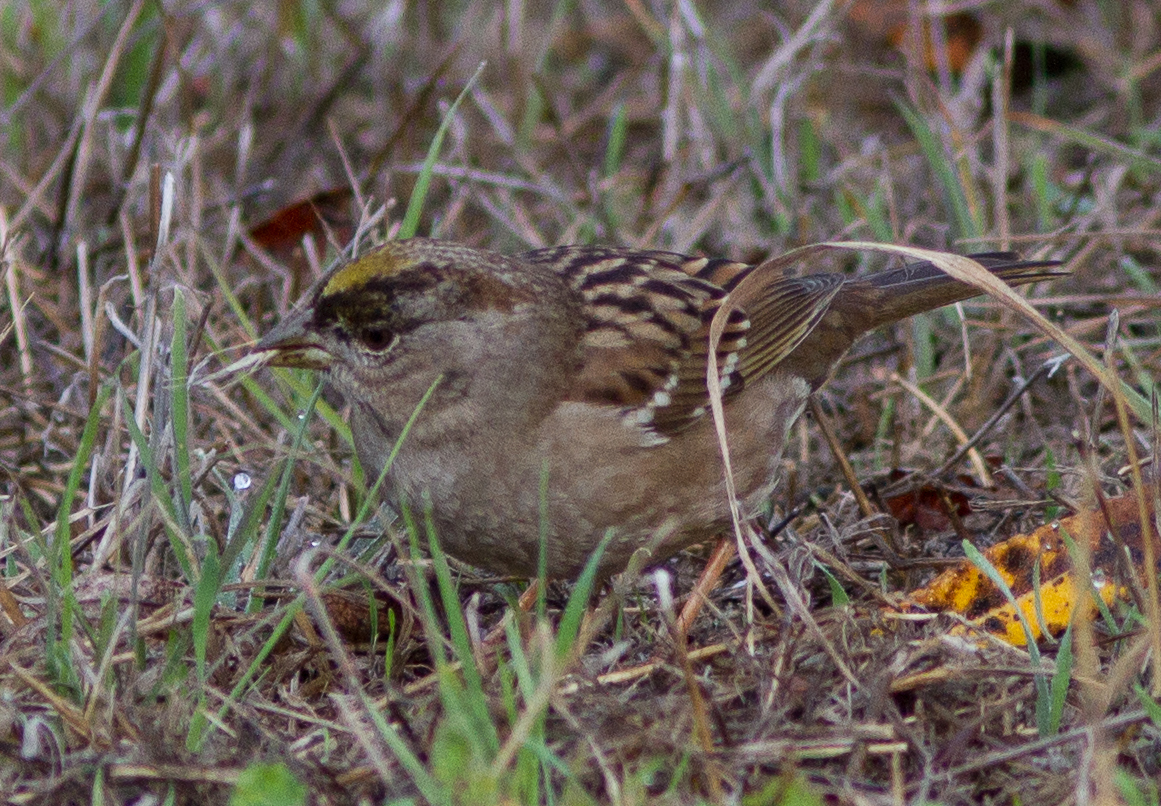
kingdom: Animalia
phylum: Chordata
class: Aves
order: Passeriformes
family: Passerellidae
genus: Zonotrichia
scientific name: Zonotrichia atricapilla
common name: Golden-crowned sparrow
